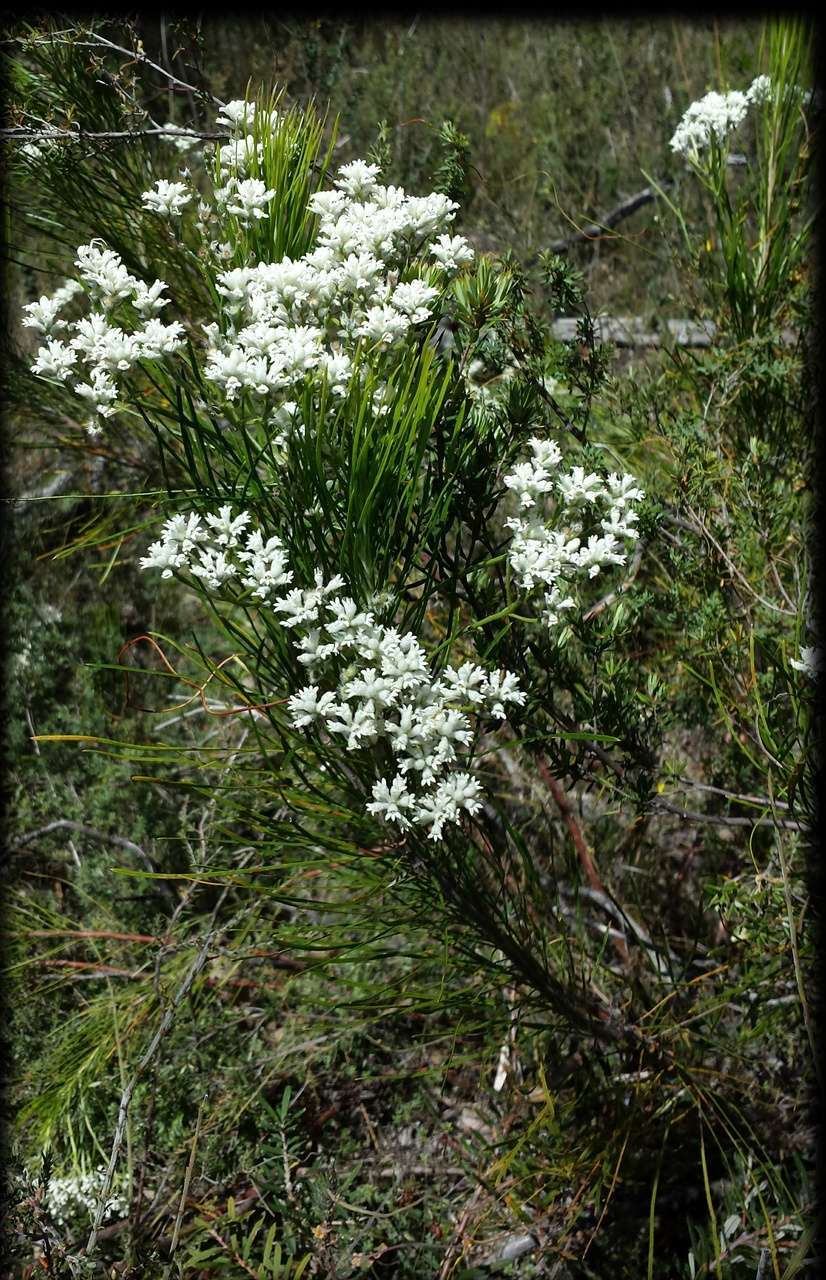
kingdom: Plantae
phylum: Tracheophyta
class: Magnoliopsida
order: Proteales
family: Proteaceae
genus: Conospermum
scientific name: Conospermum mitchellii
